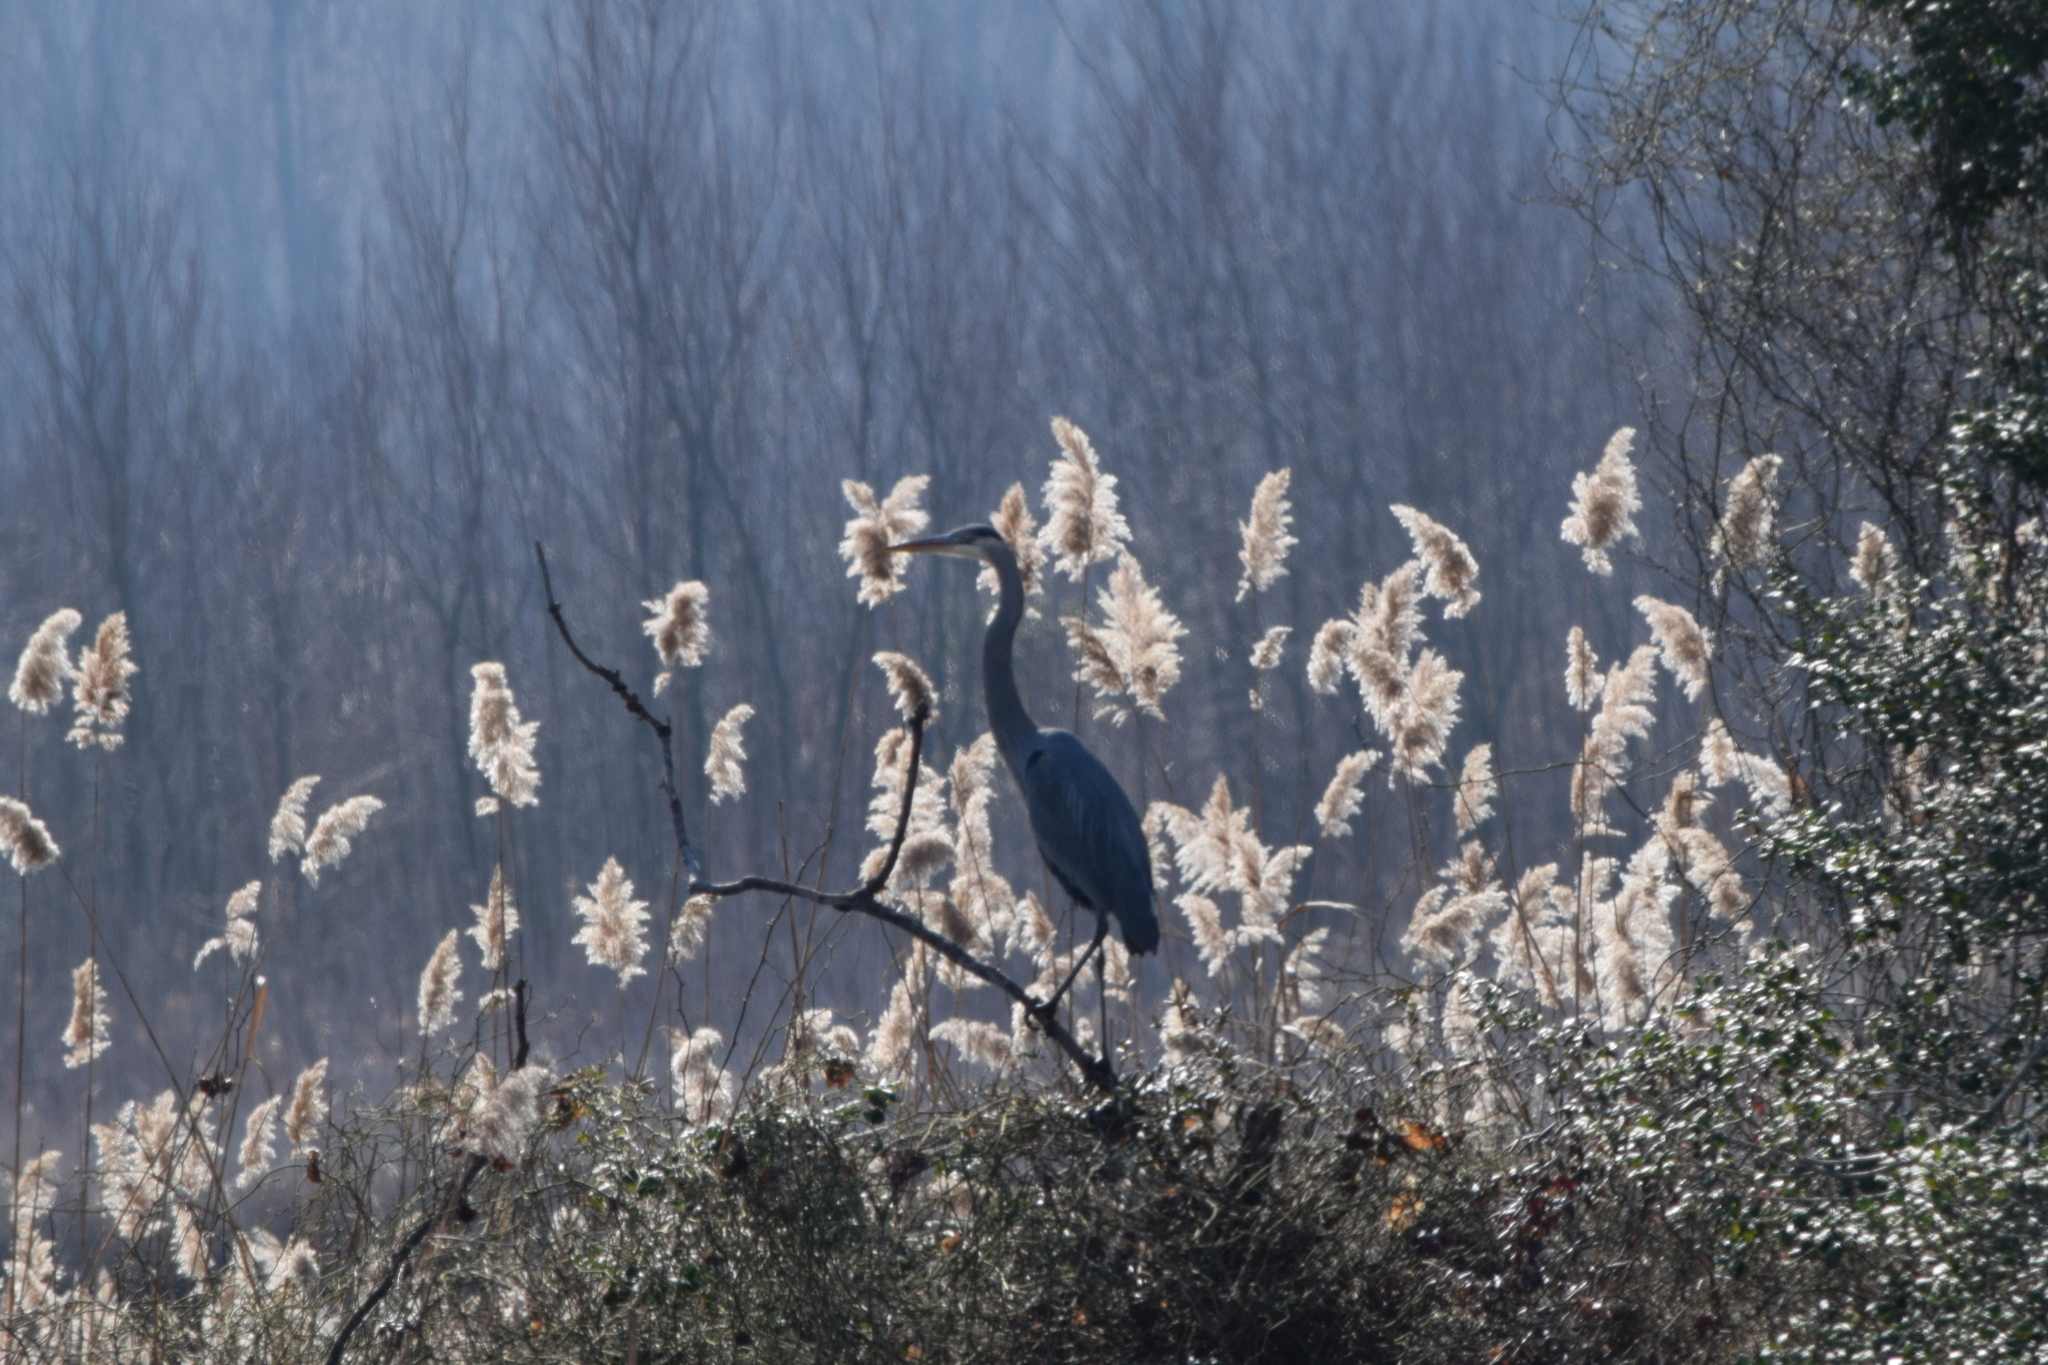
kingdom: Animalia
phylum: Chordata
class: Aves
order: Pelecaniformes
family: Ardeidae
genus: Ardea
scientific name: Ardea herodias
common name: Great blue heron
